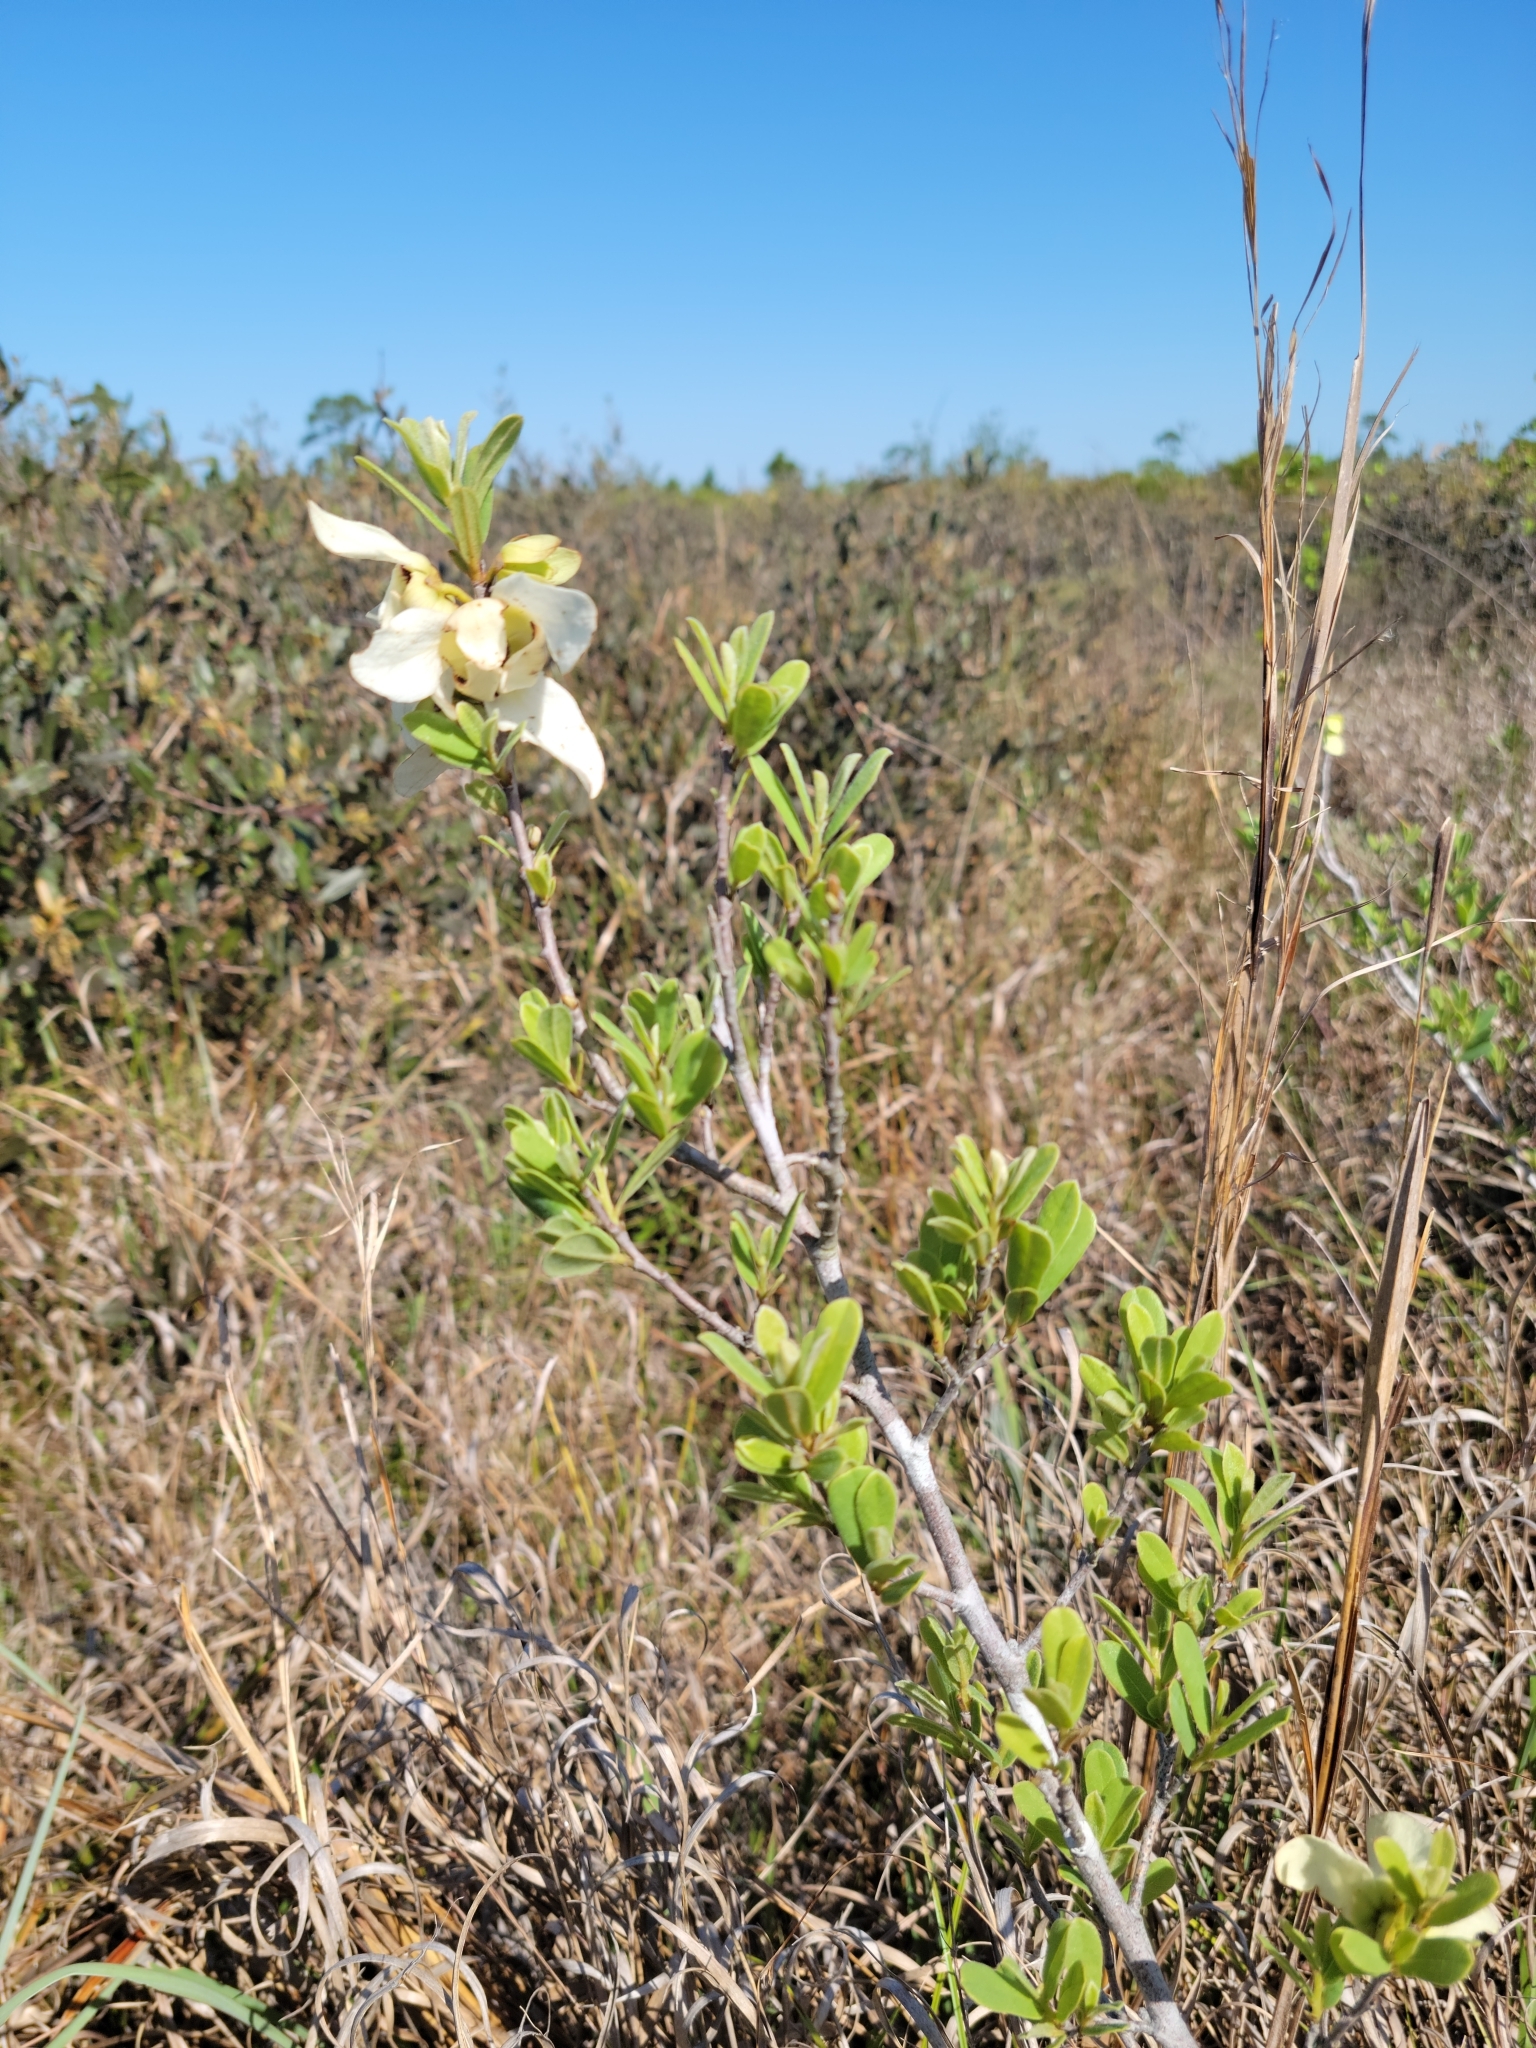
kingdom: Plantae
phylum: Tracheophyta
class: Magnoliopsida
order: Magnoliales
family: Annonaceae
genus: Asimina
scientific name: Asimina reticulata
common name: Flag pawpaw
